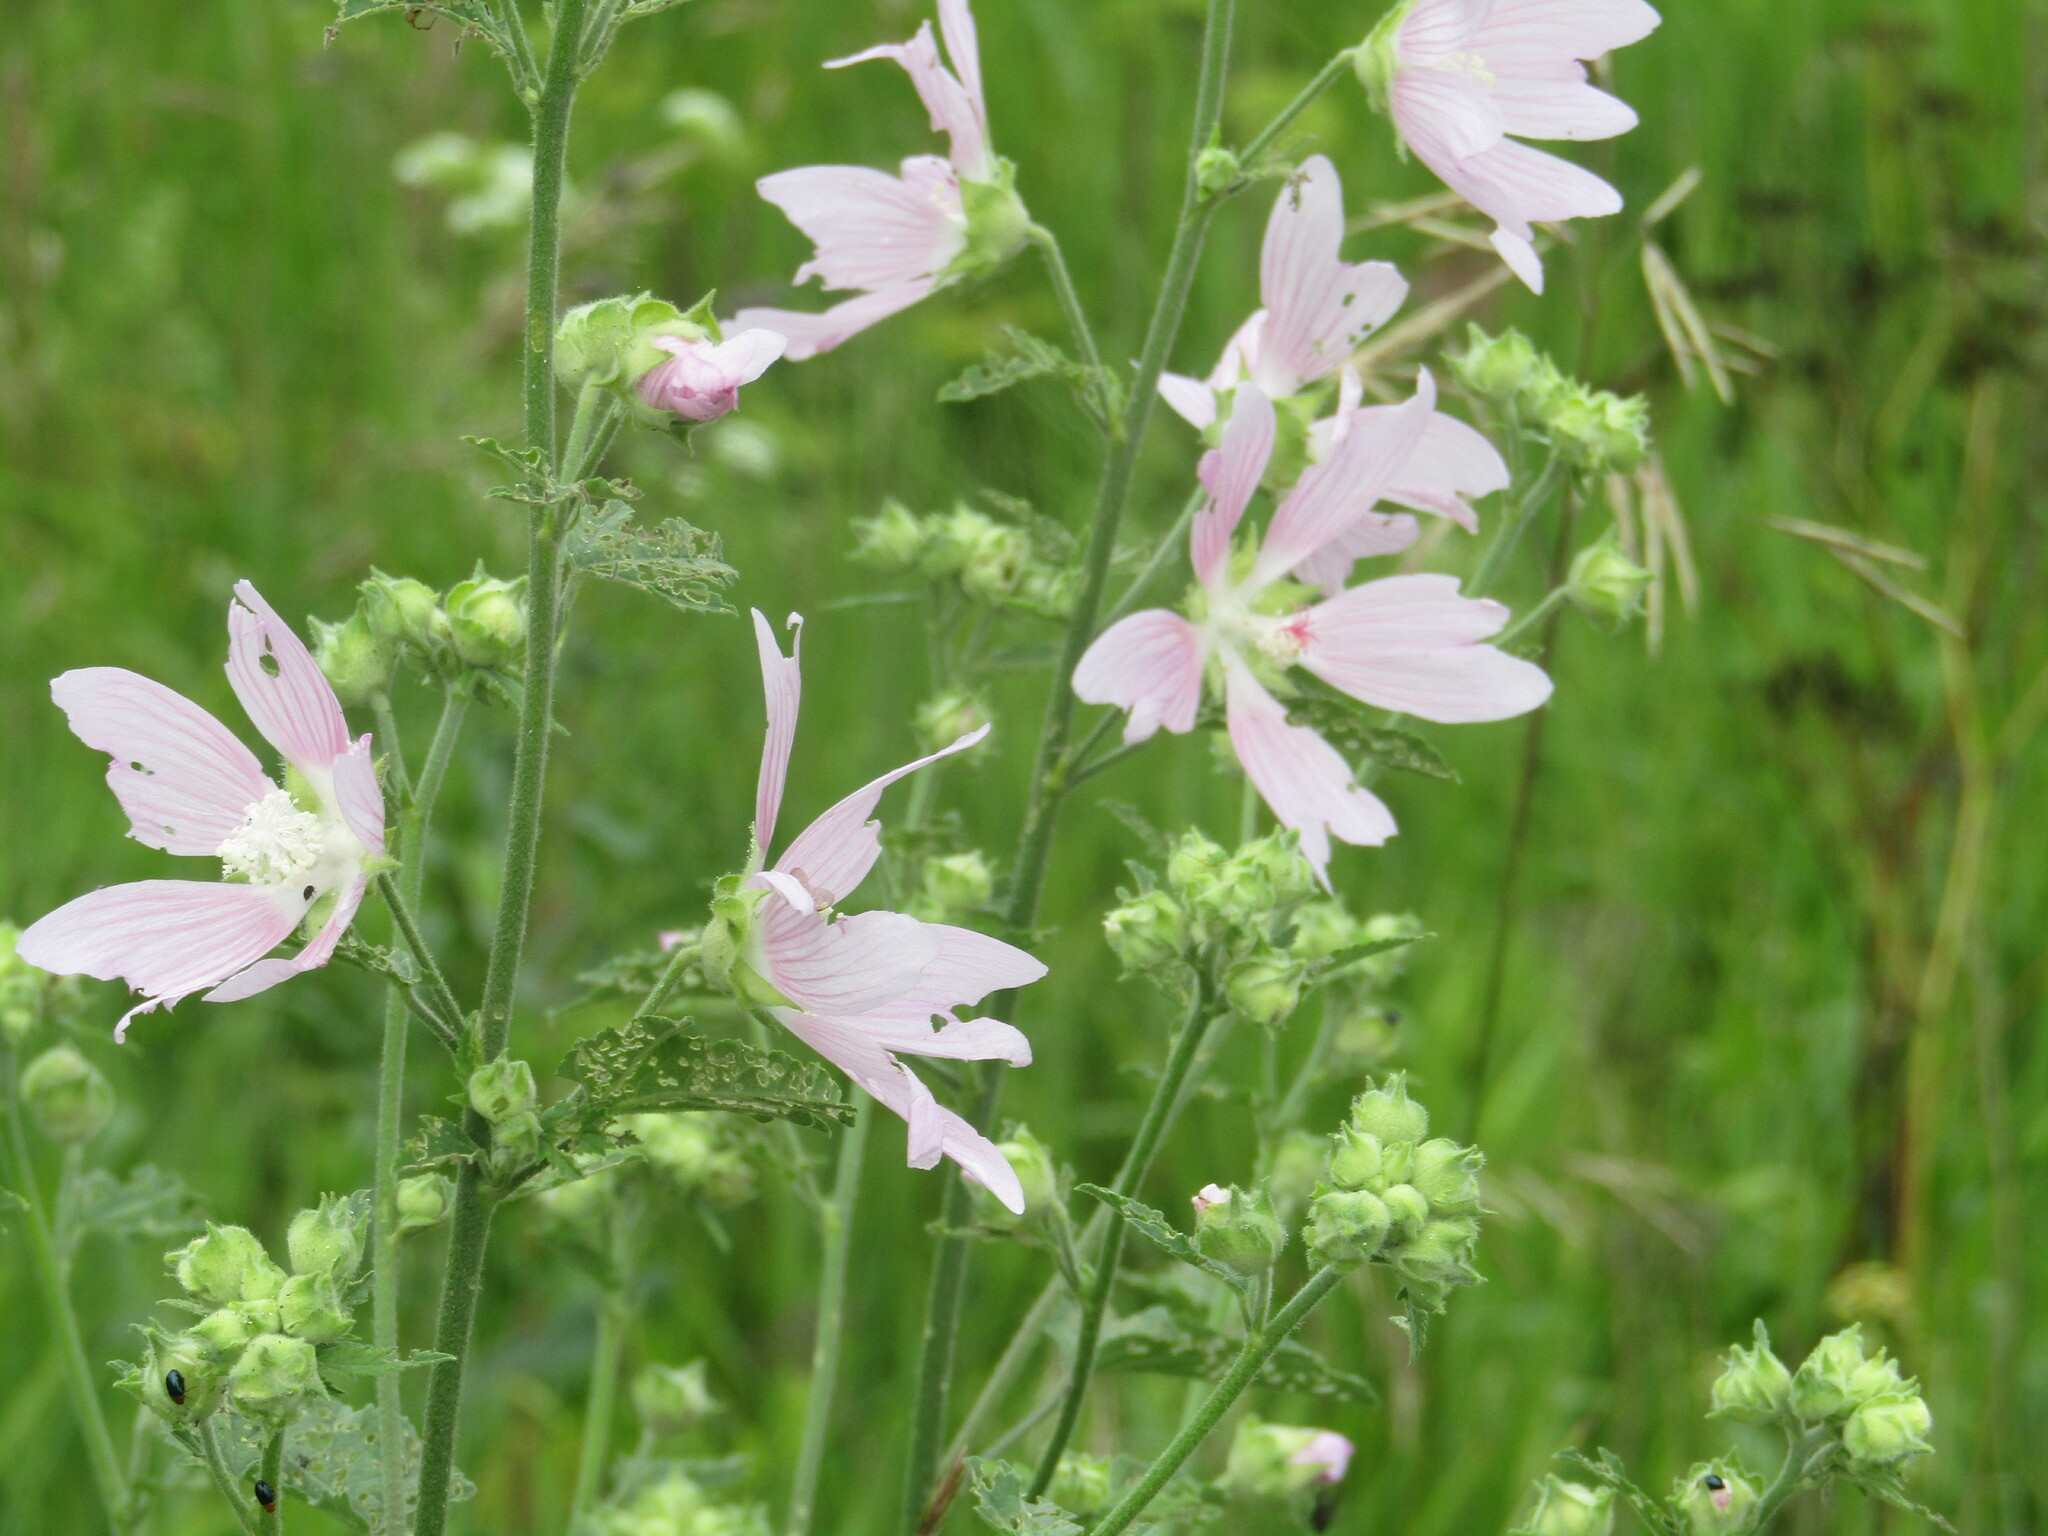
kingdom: Plantae
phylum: Tracheophyta
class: Magnoliopsida
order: Malvales
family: Malvaceae
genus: Malva
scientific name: Malva thuringiaca
